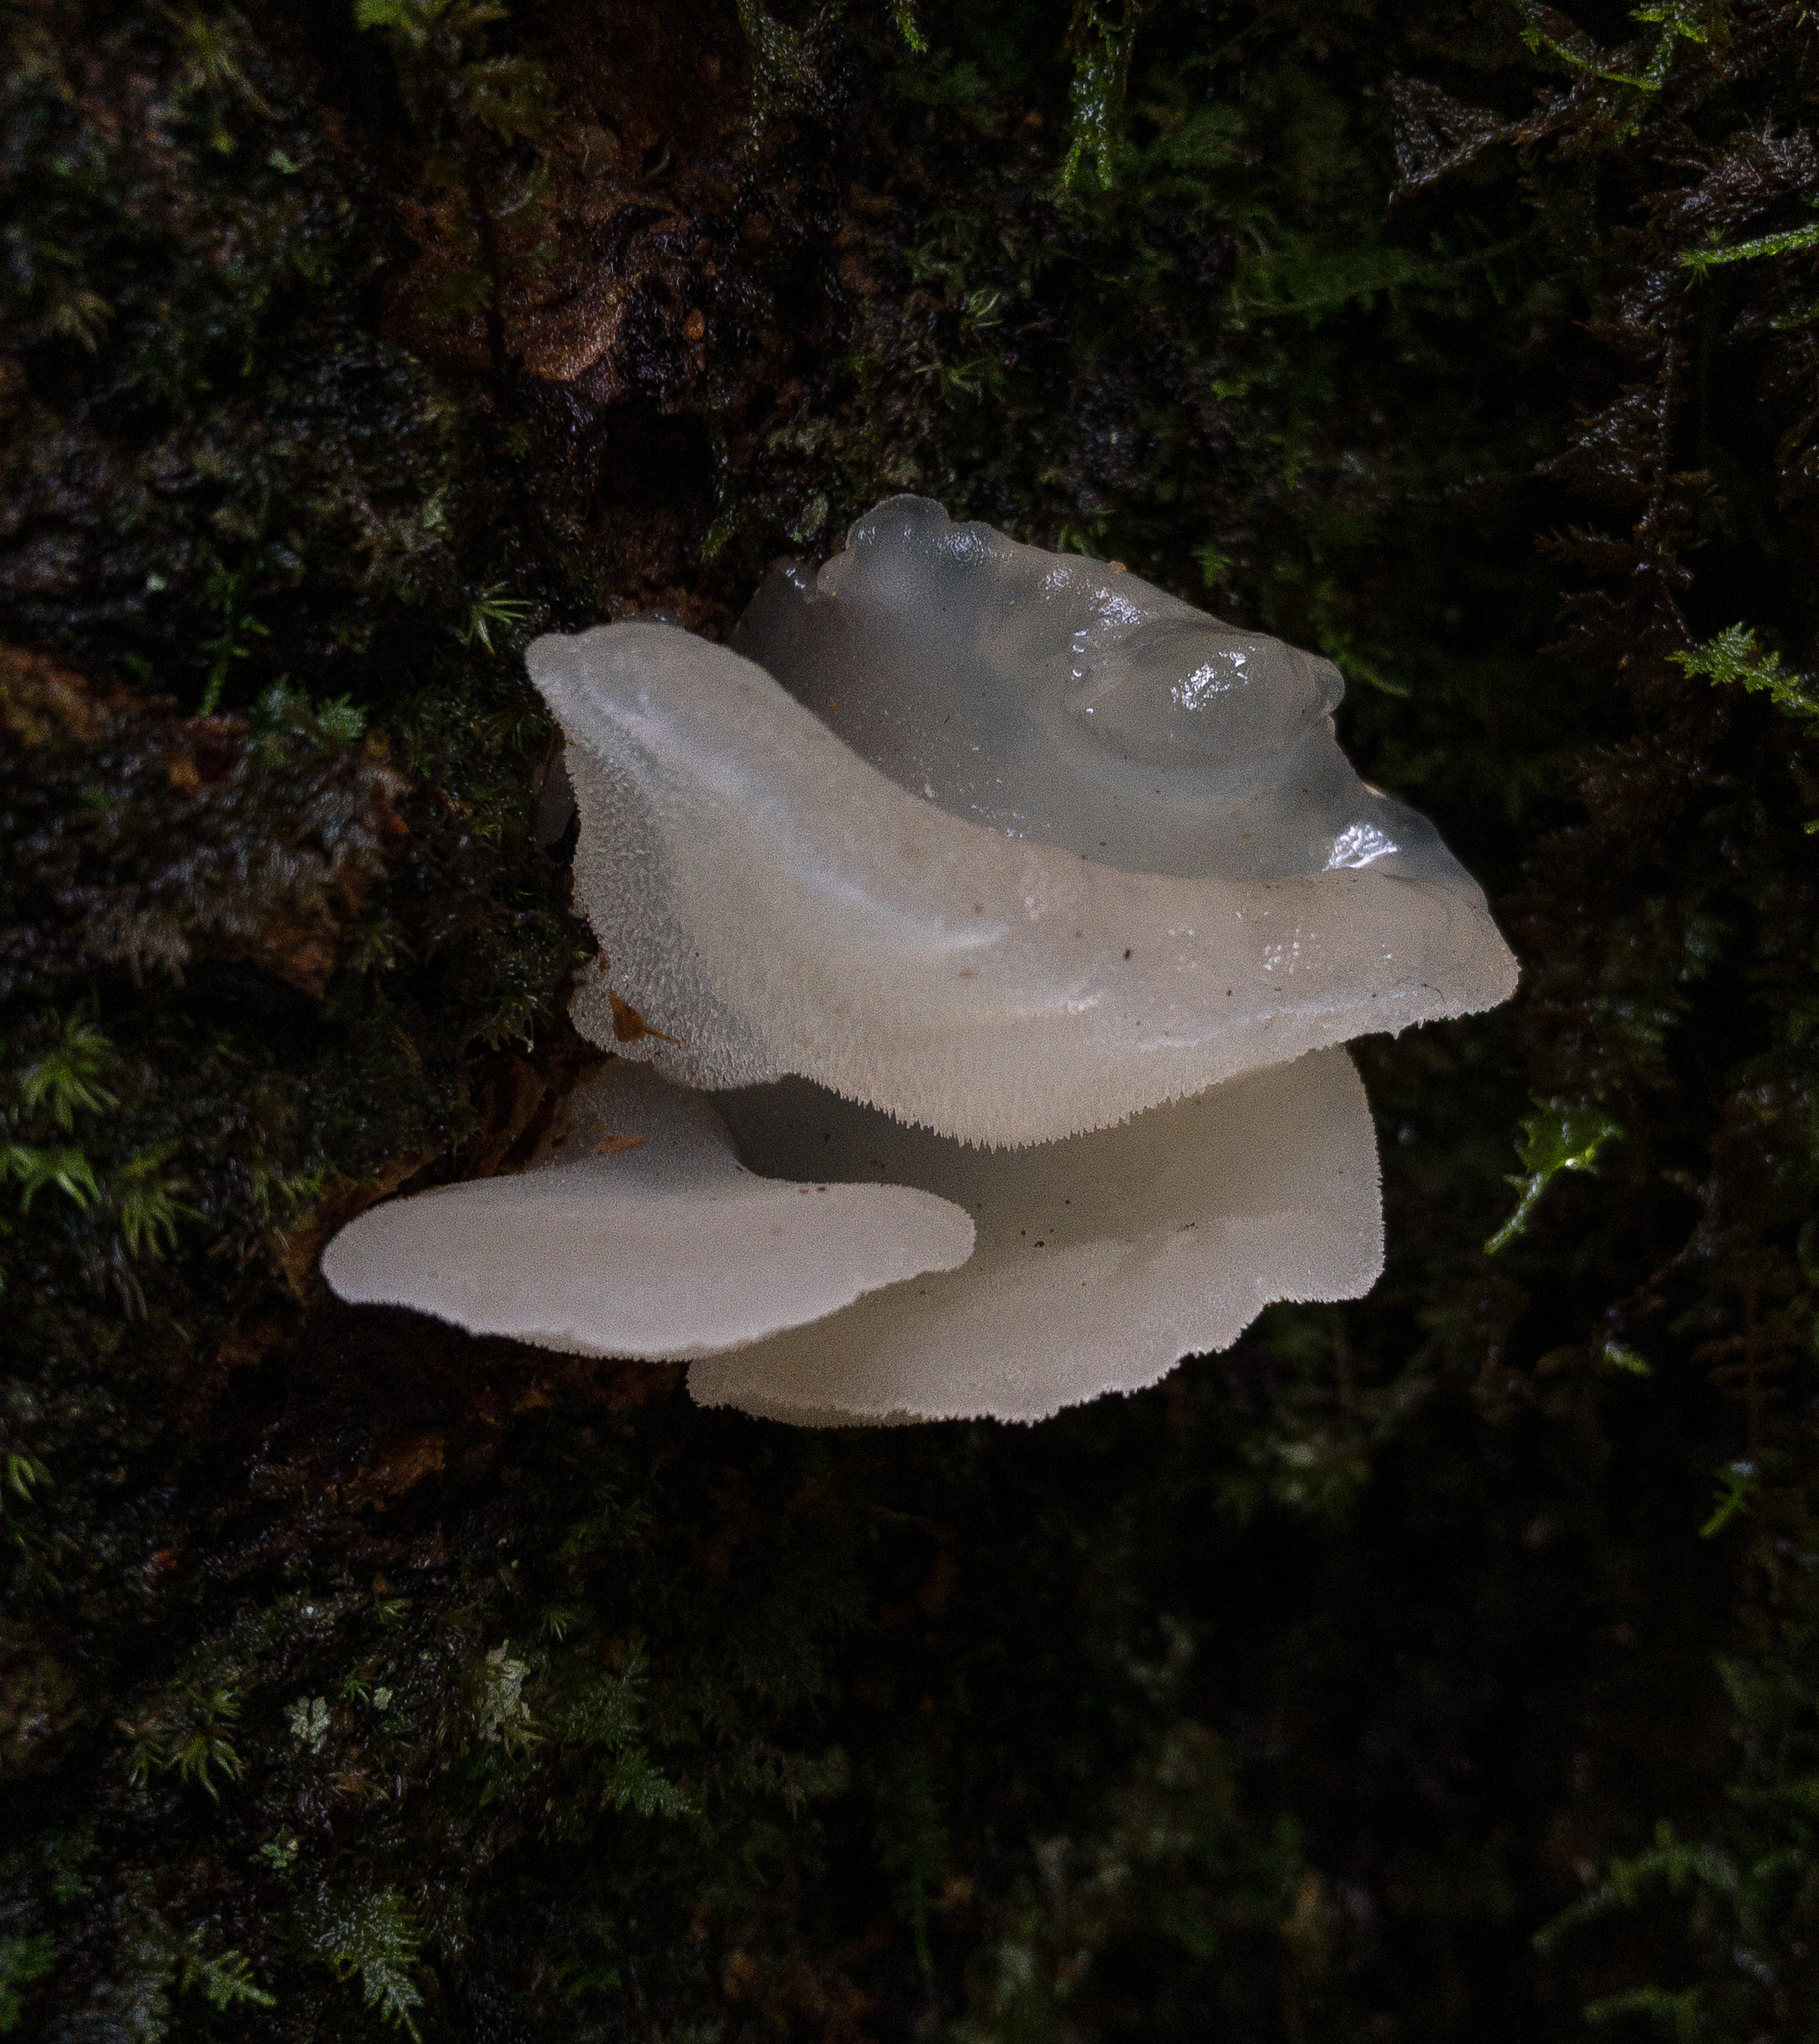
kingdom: Fungi
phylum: Basidiomycota
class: Agaricomycetes
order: Auriculariales
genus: Pseudohydnum
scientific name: Pseudohydnum gelatinosum
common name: Jelly tongue
